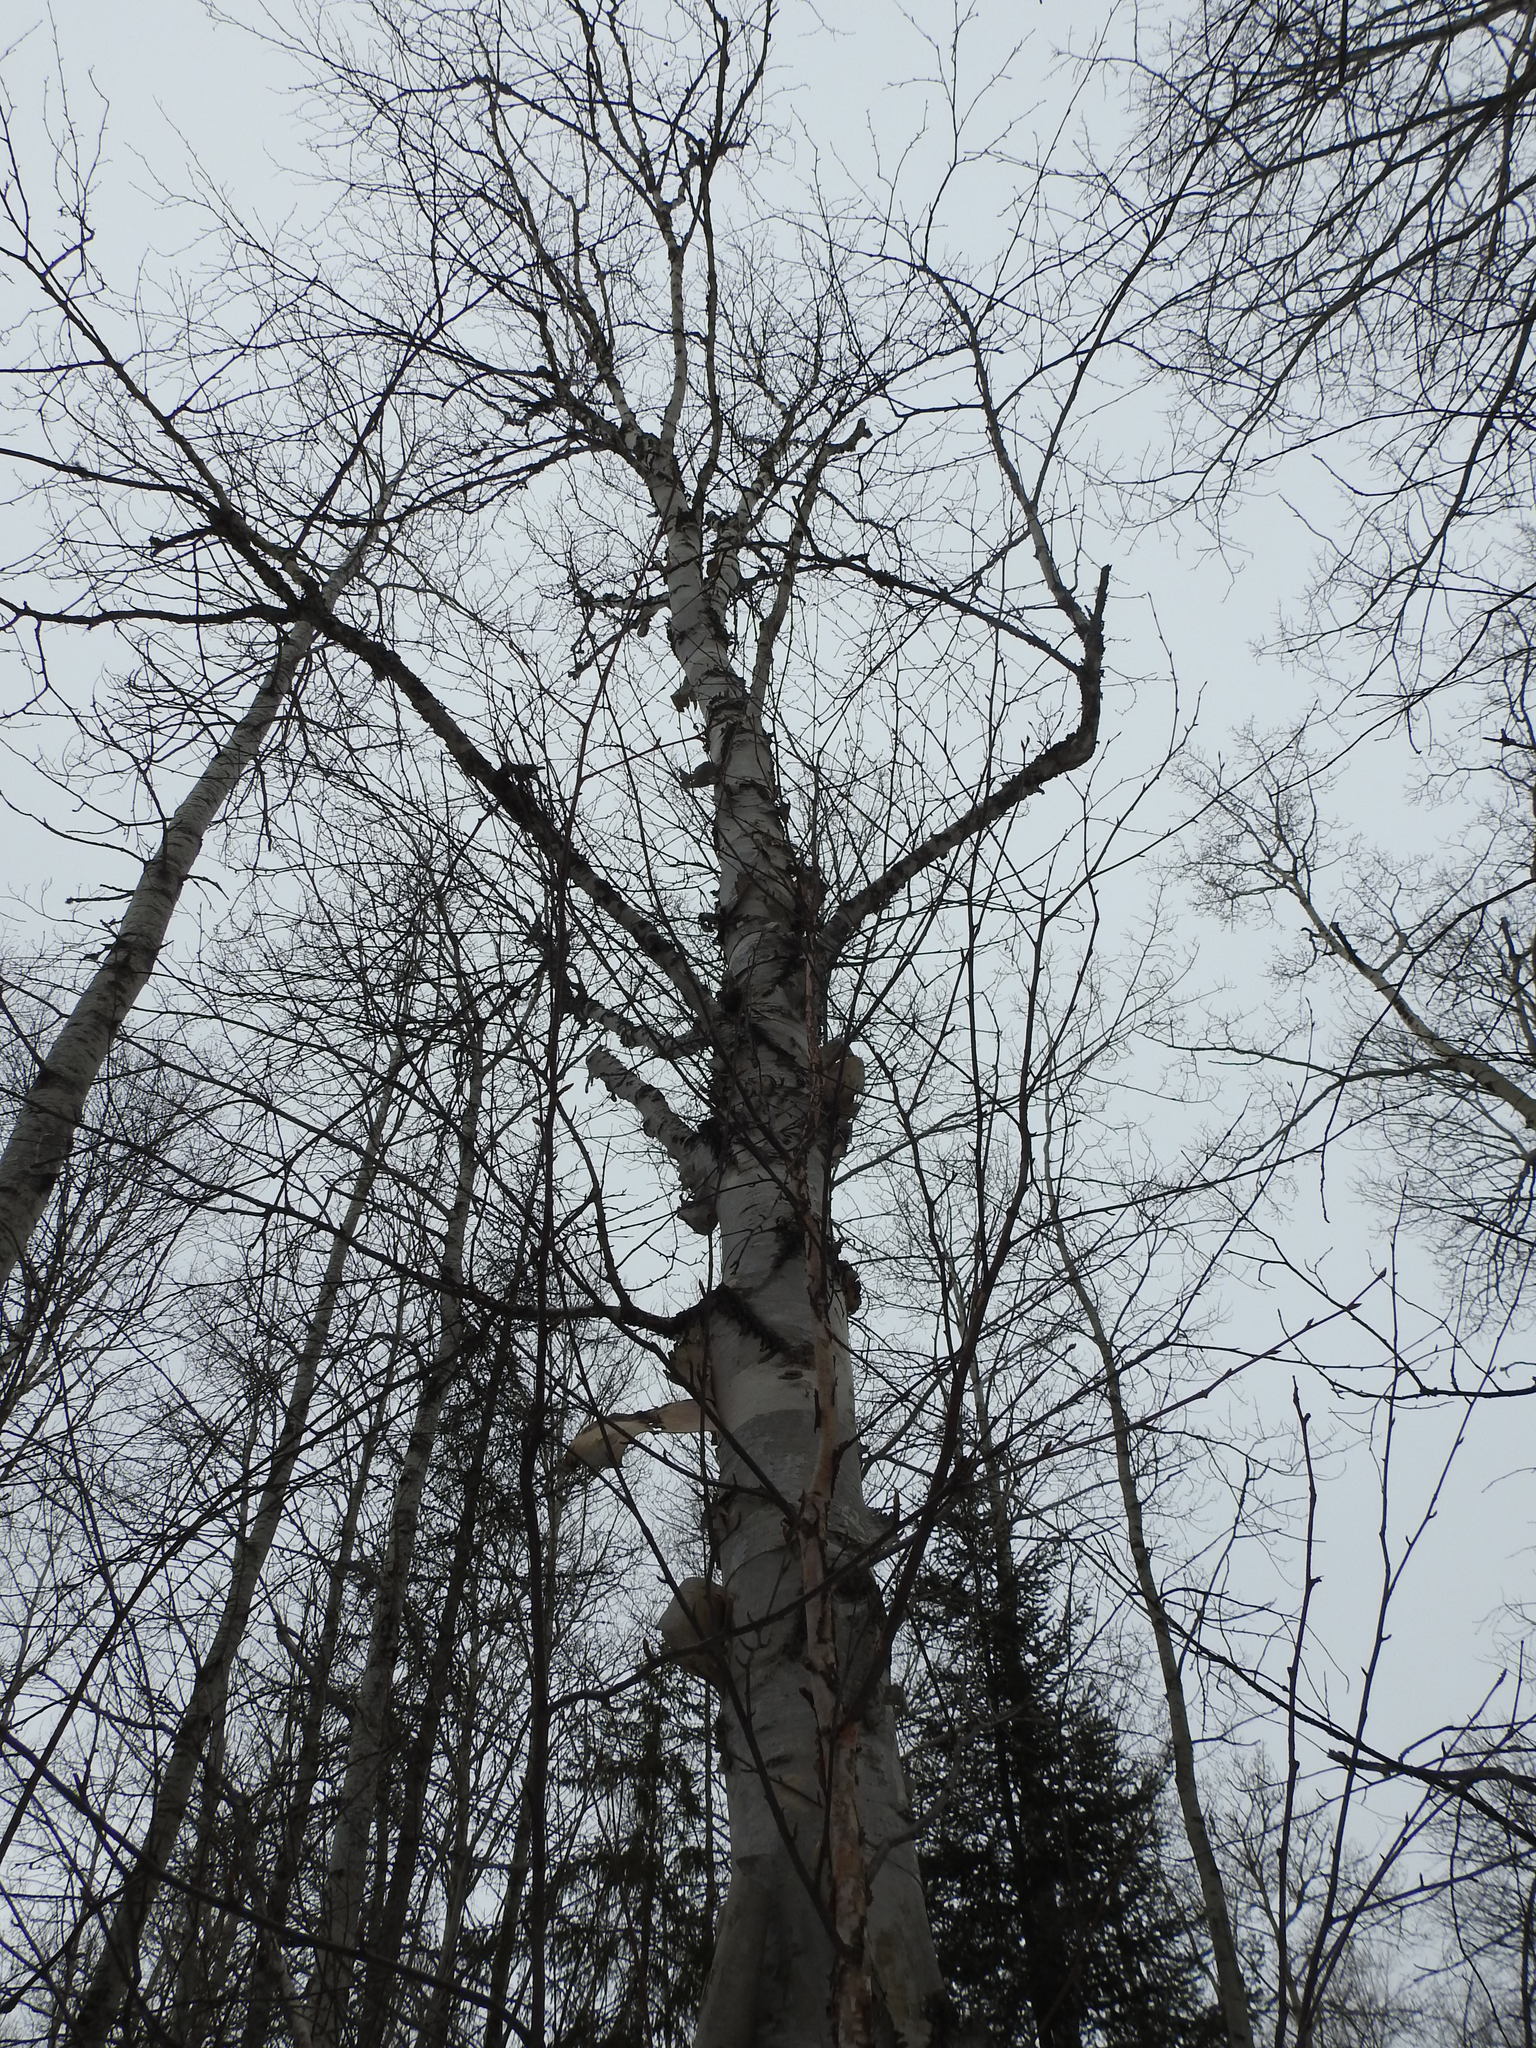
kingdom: Plantae
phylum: Tracheophyta
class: Magnoliopsida
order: Fagales
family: Betulaceae
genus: Betula
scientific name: Betula papyrifera
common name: Paper birch
